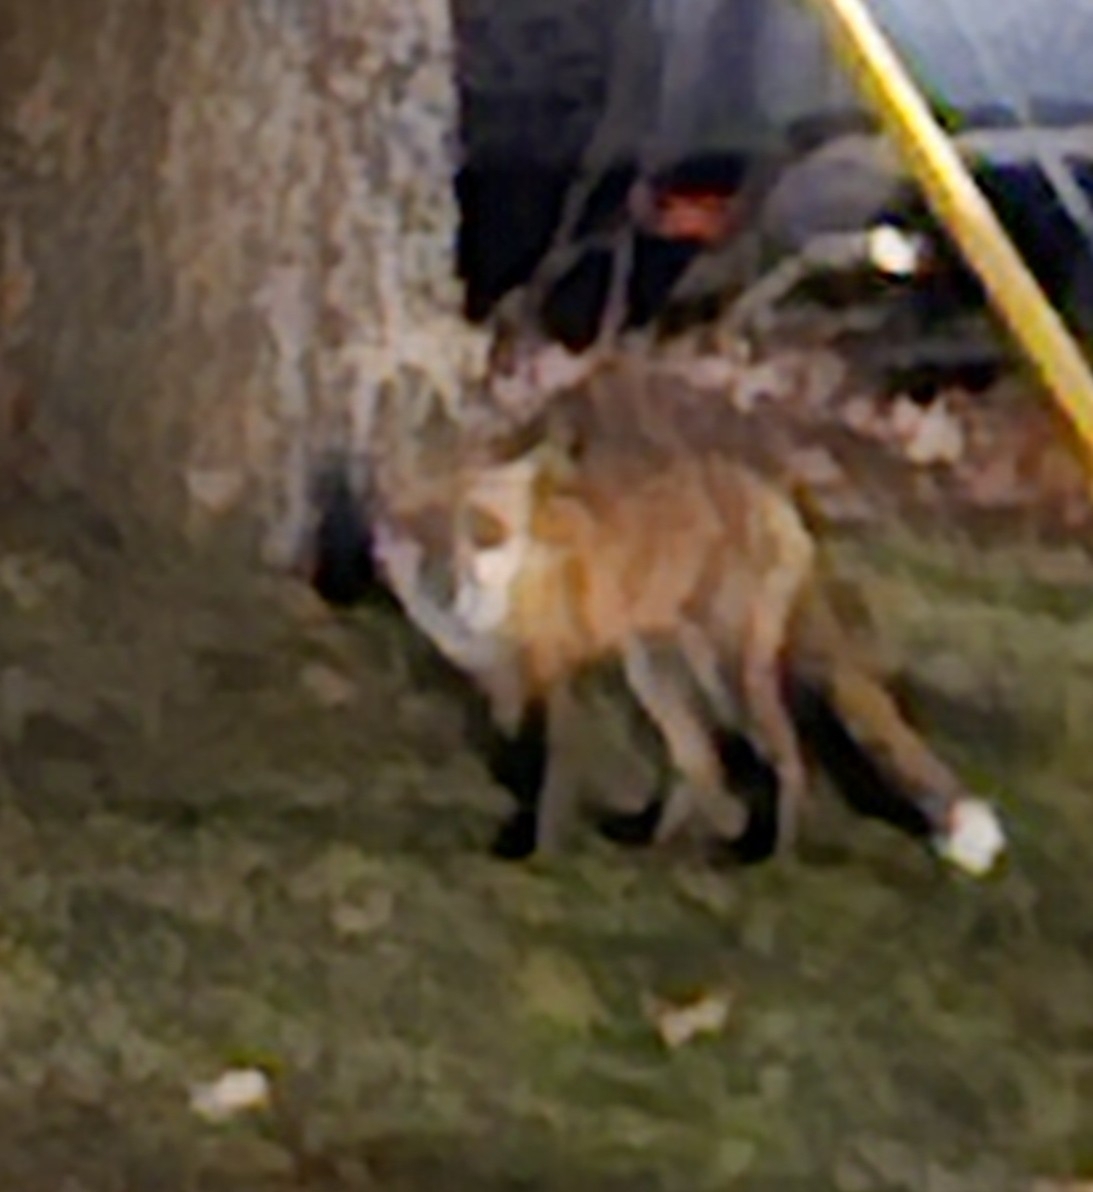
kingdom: Animalia
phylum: Chordata
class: Mammalia
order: Carnivora
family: Canidae
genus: Vulpes
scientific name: Vulpes vulpes
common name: Red fox
